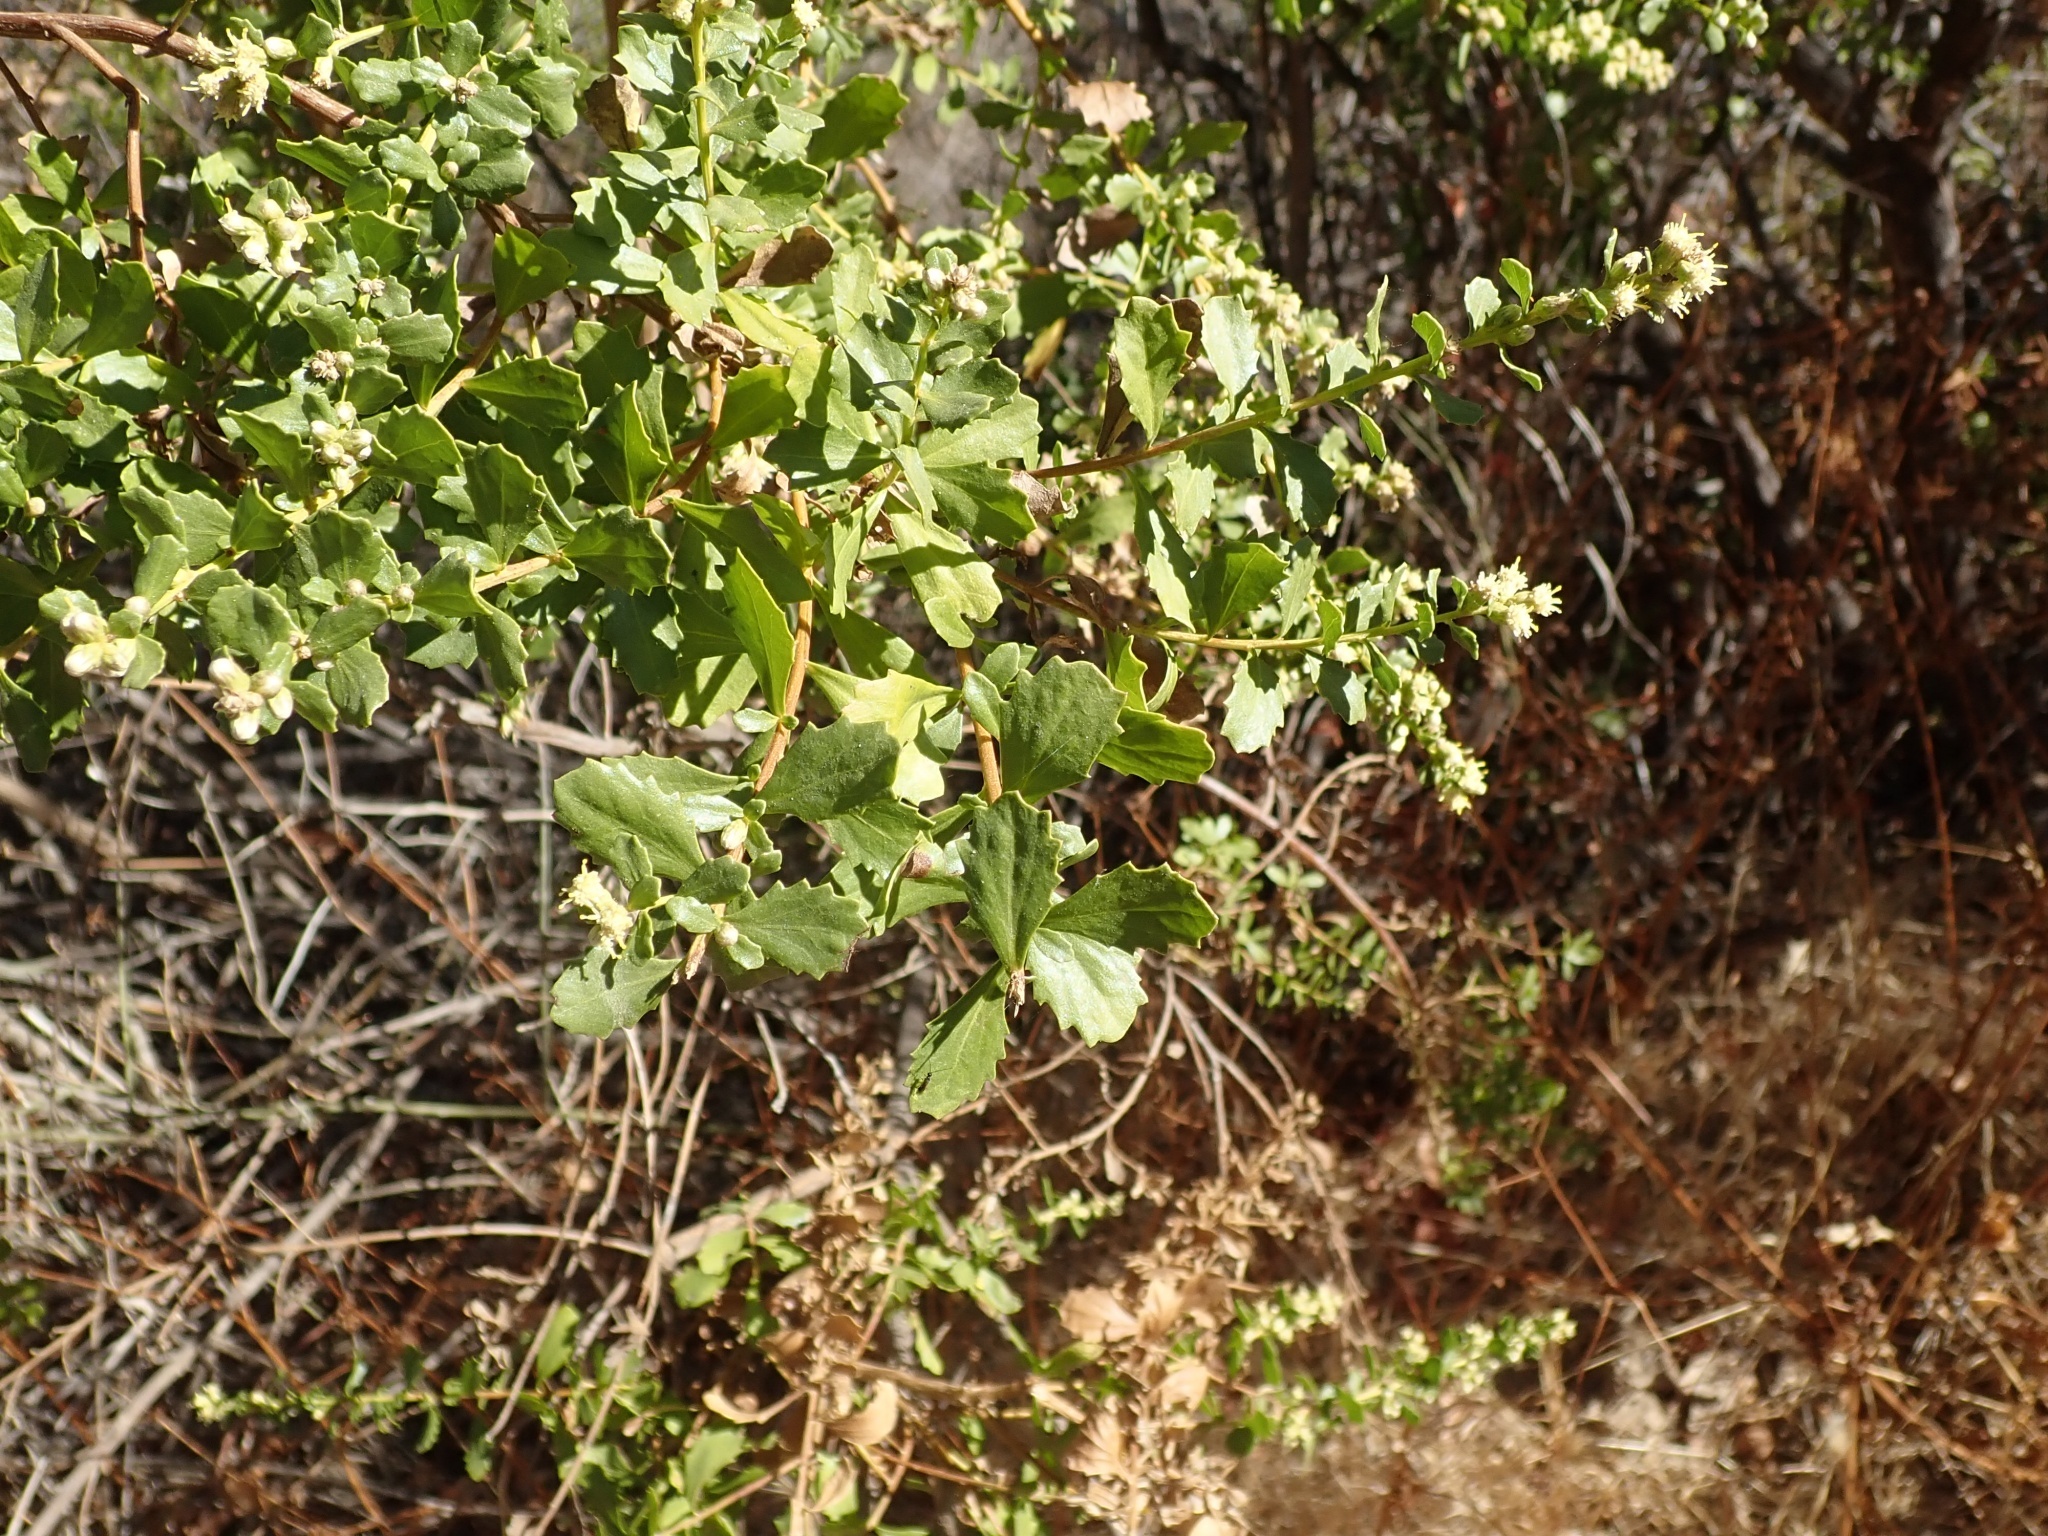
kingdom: Plantae
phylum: Tracheophyta
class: Magnoliopsida
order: Asterales
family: Asteraceae
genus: Baccharis
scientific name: Baccharis pilularis
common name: Coyotebrush
